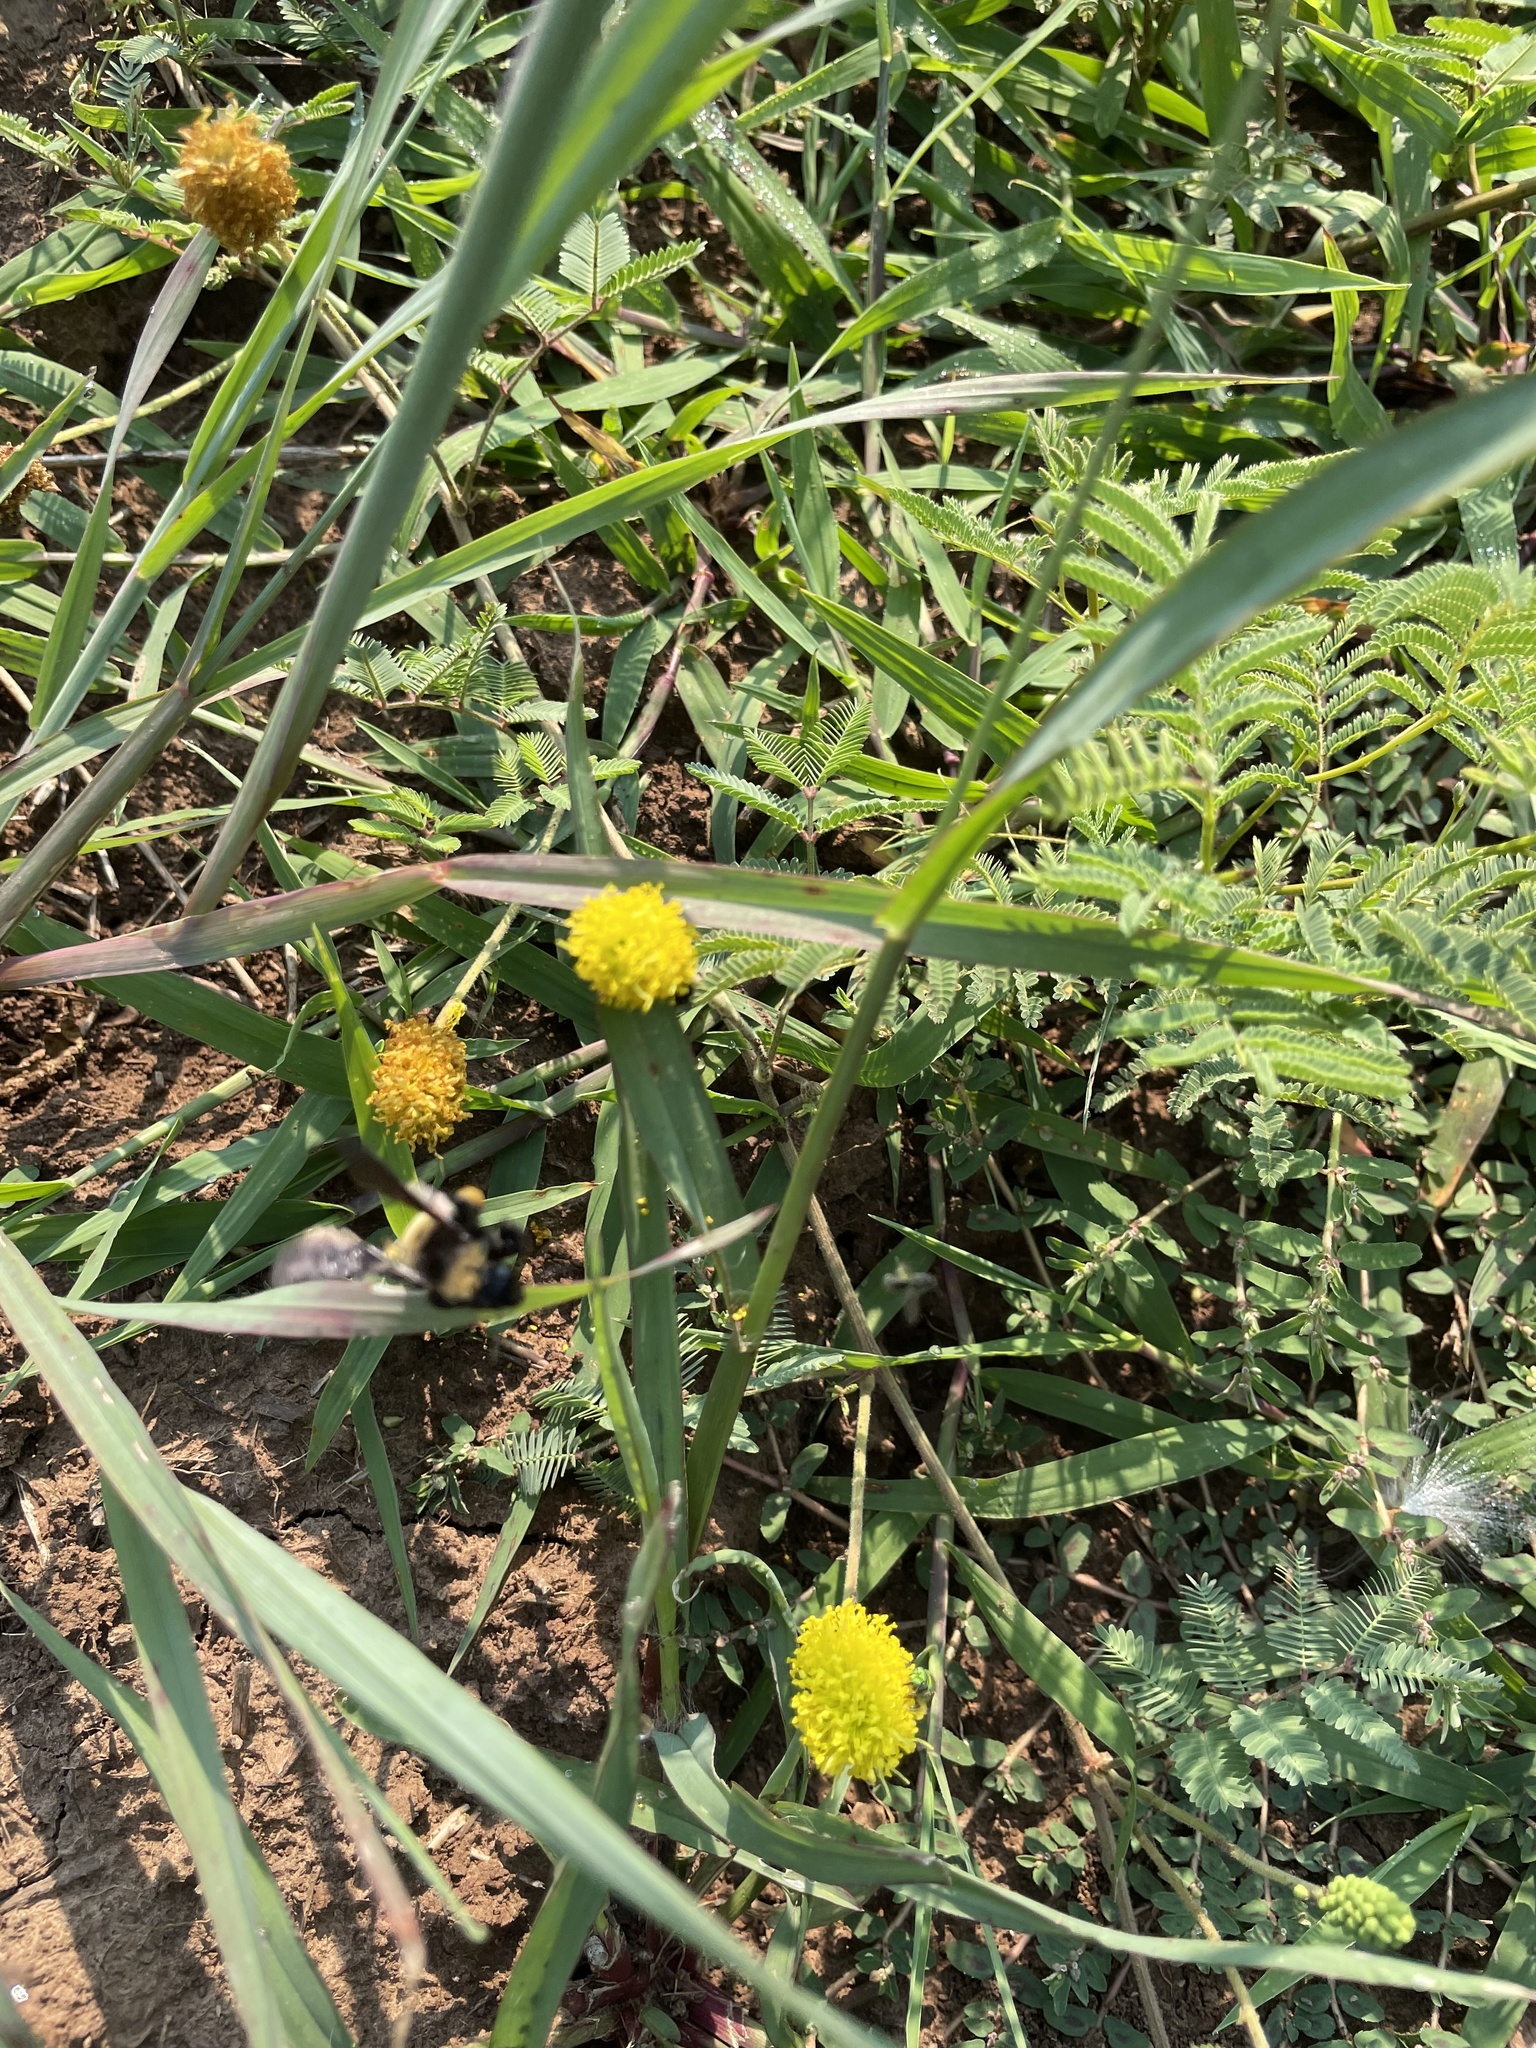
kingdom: Plantae
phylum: Tracheophyta
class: Magnoliopsida
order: Fabales
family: Fabaceae
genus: Neptunia
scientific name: Neptunia lutea
